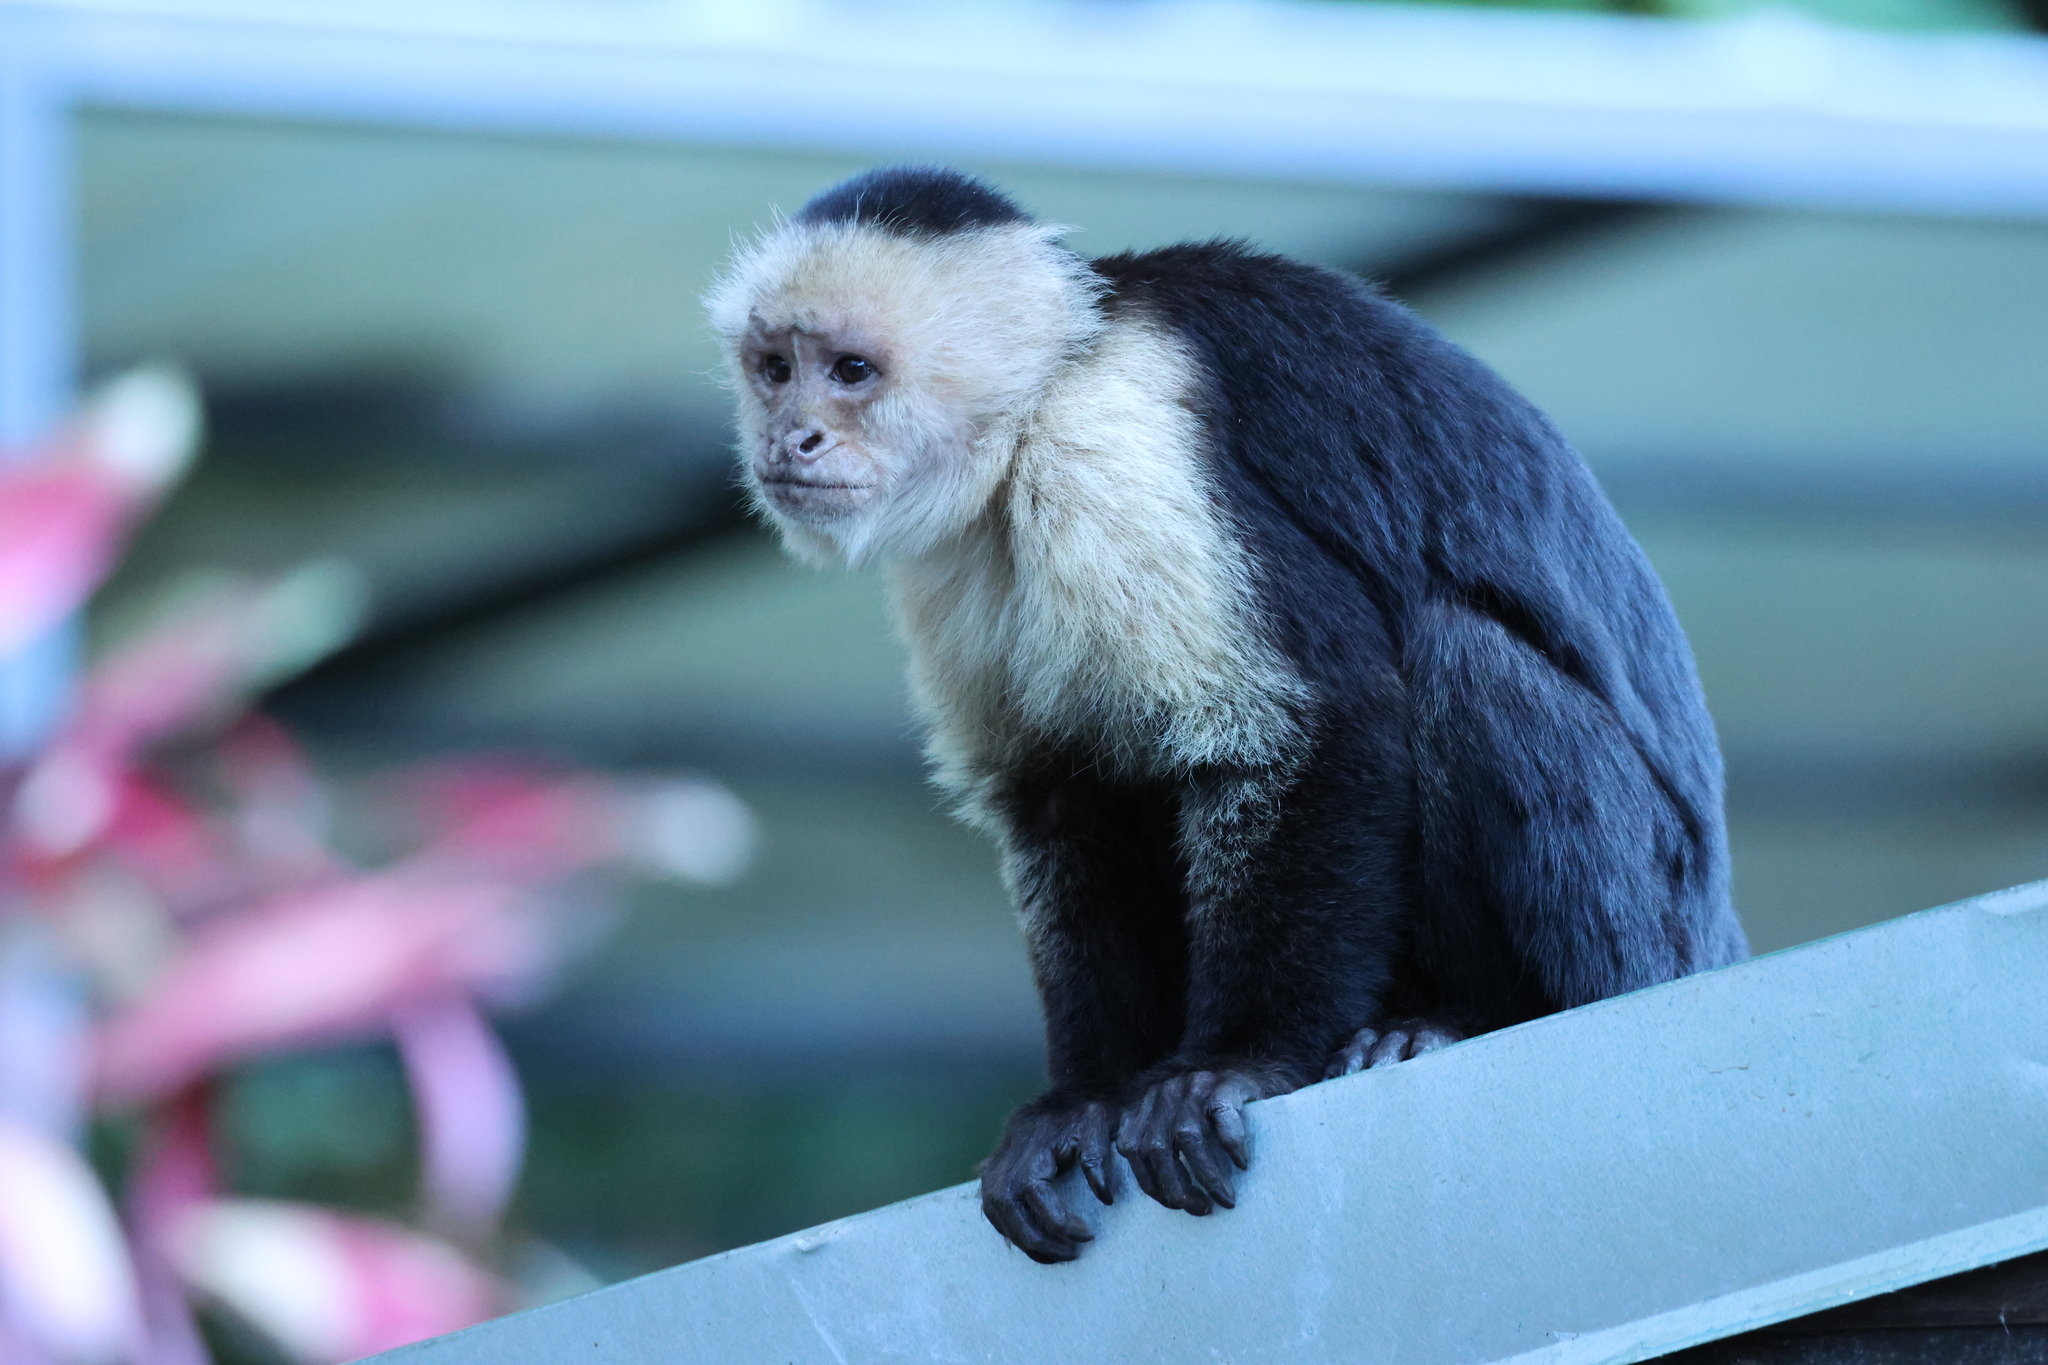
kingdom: Animalia
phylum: Chordata
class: Mammalia
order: Primates
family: Cebidae
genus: Cebus
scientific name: Cebus imitator
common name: Panamanian white-faced capuchin
